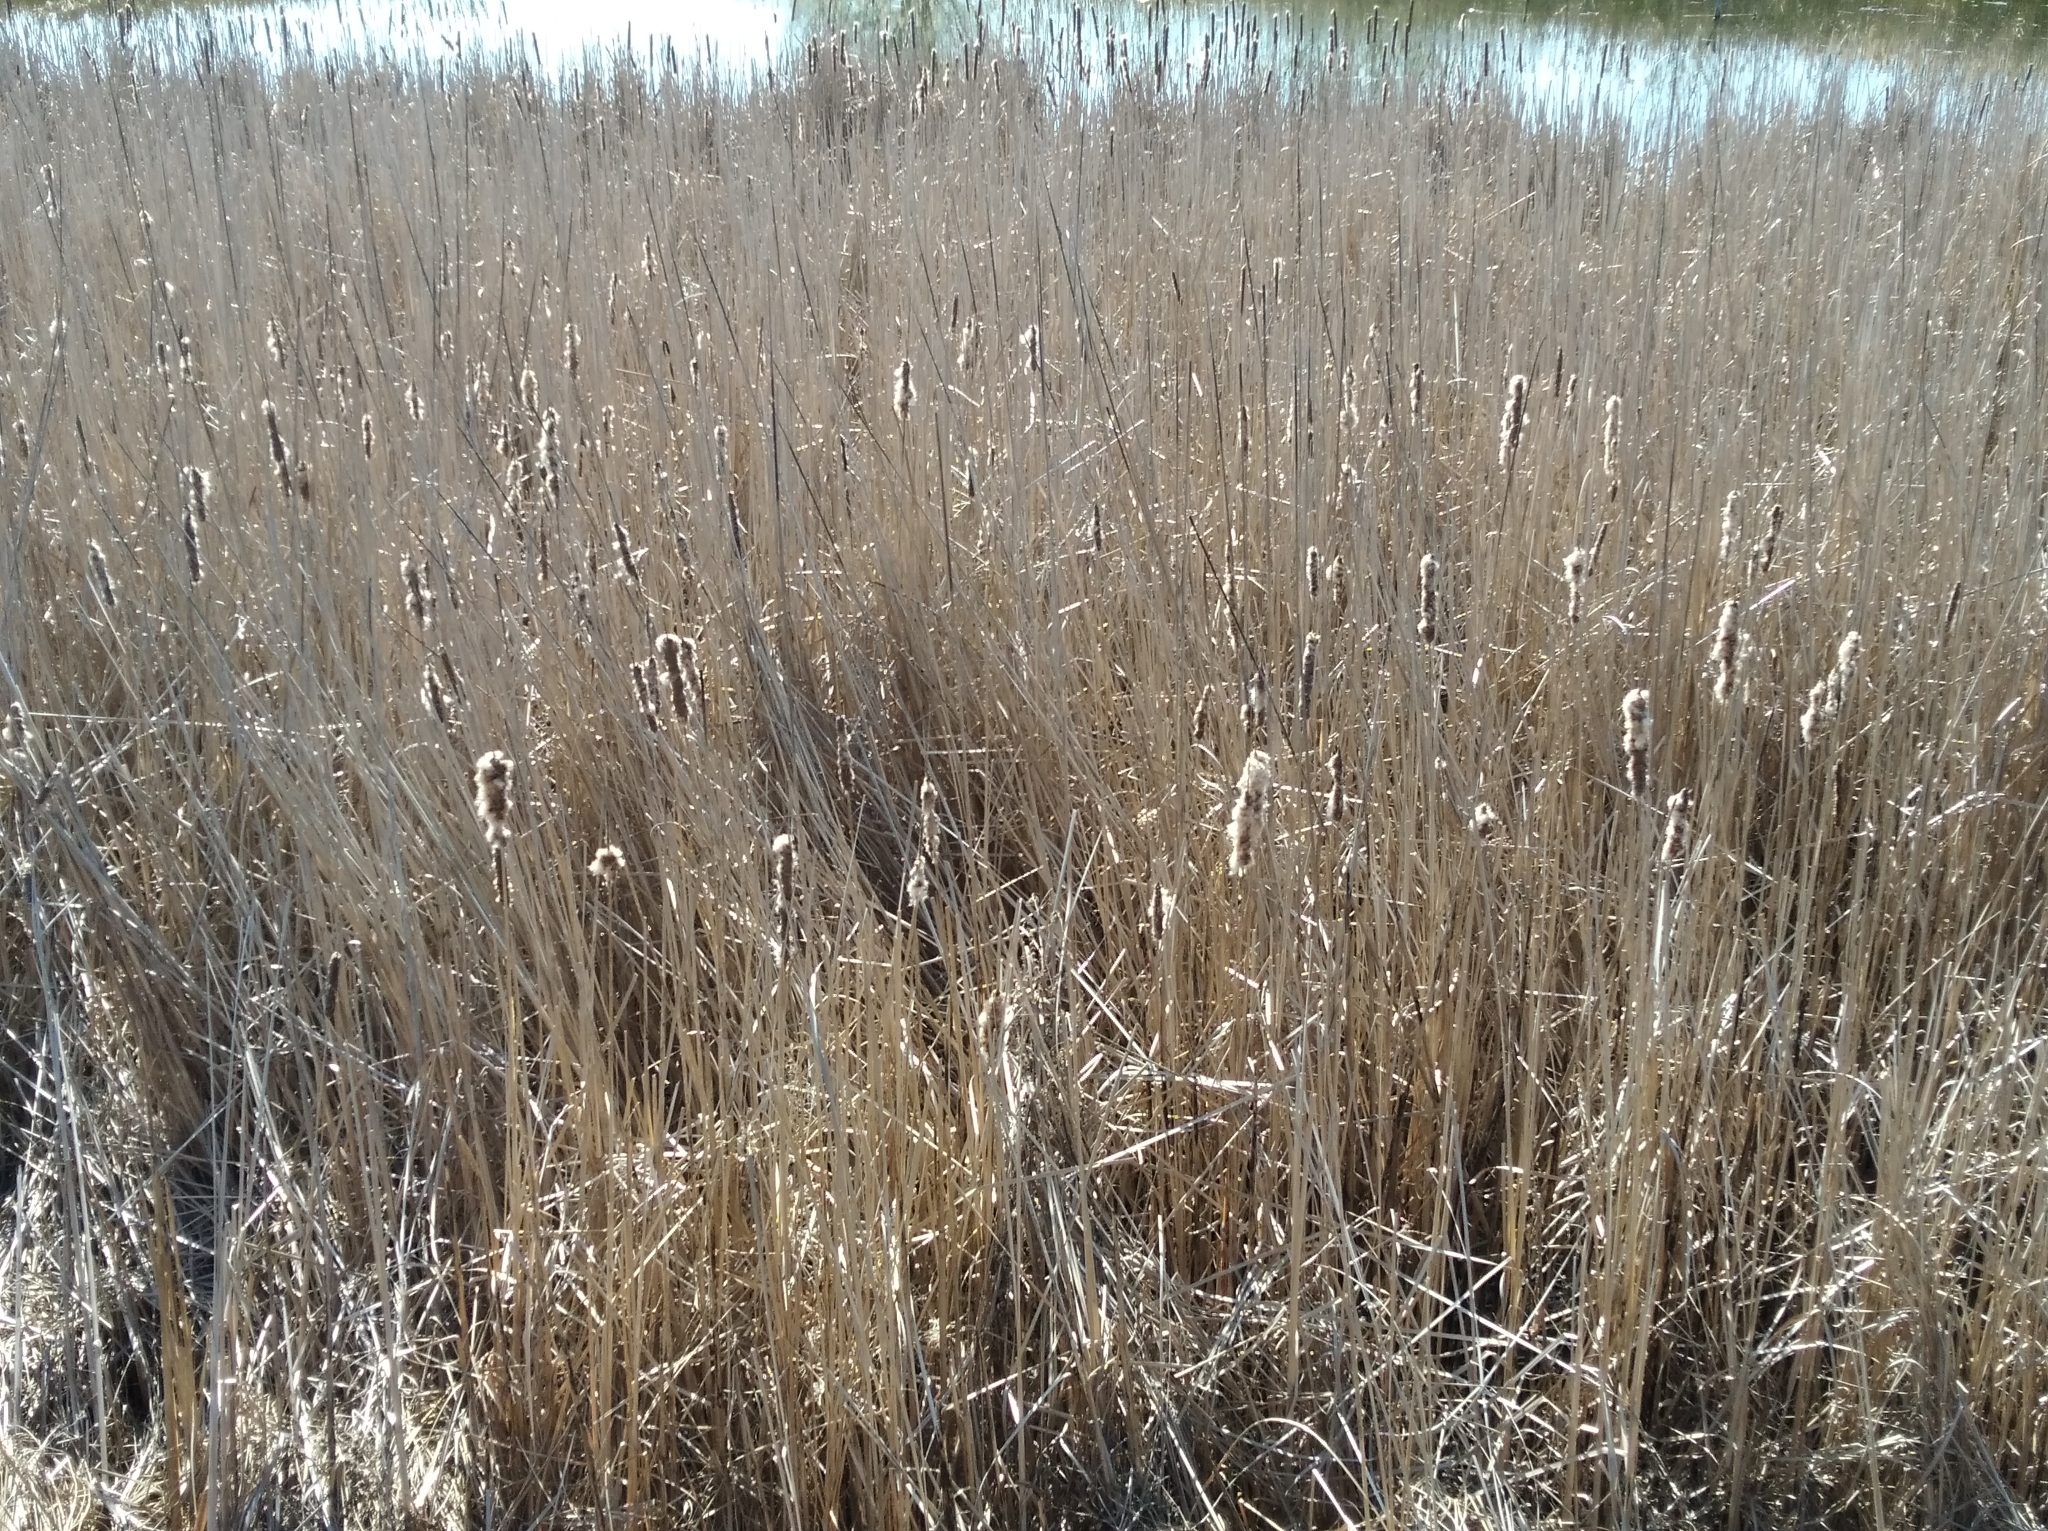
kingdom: Plantae
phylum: Tracheophyta
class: Liliopsida
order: Poales
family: Typhaceae
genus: Typha
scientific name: Typha angustifolia
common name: Lesser bulrush
